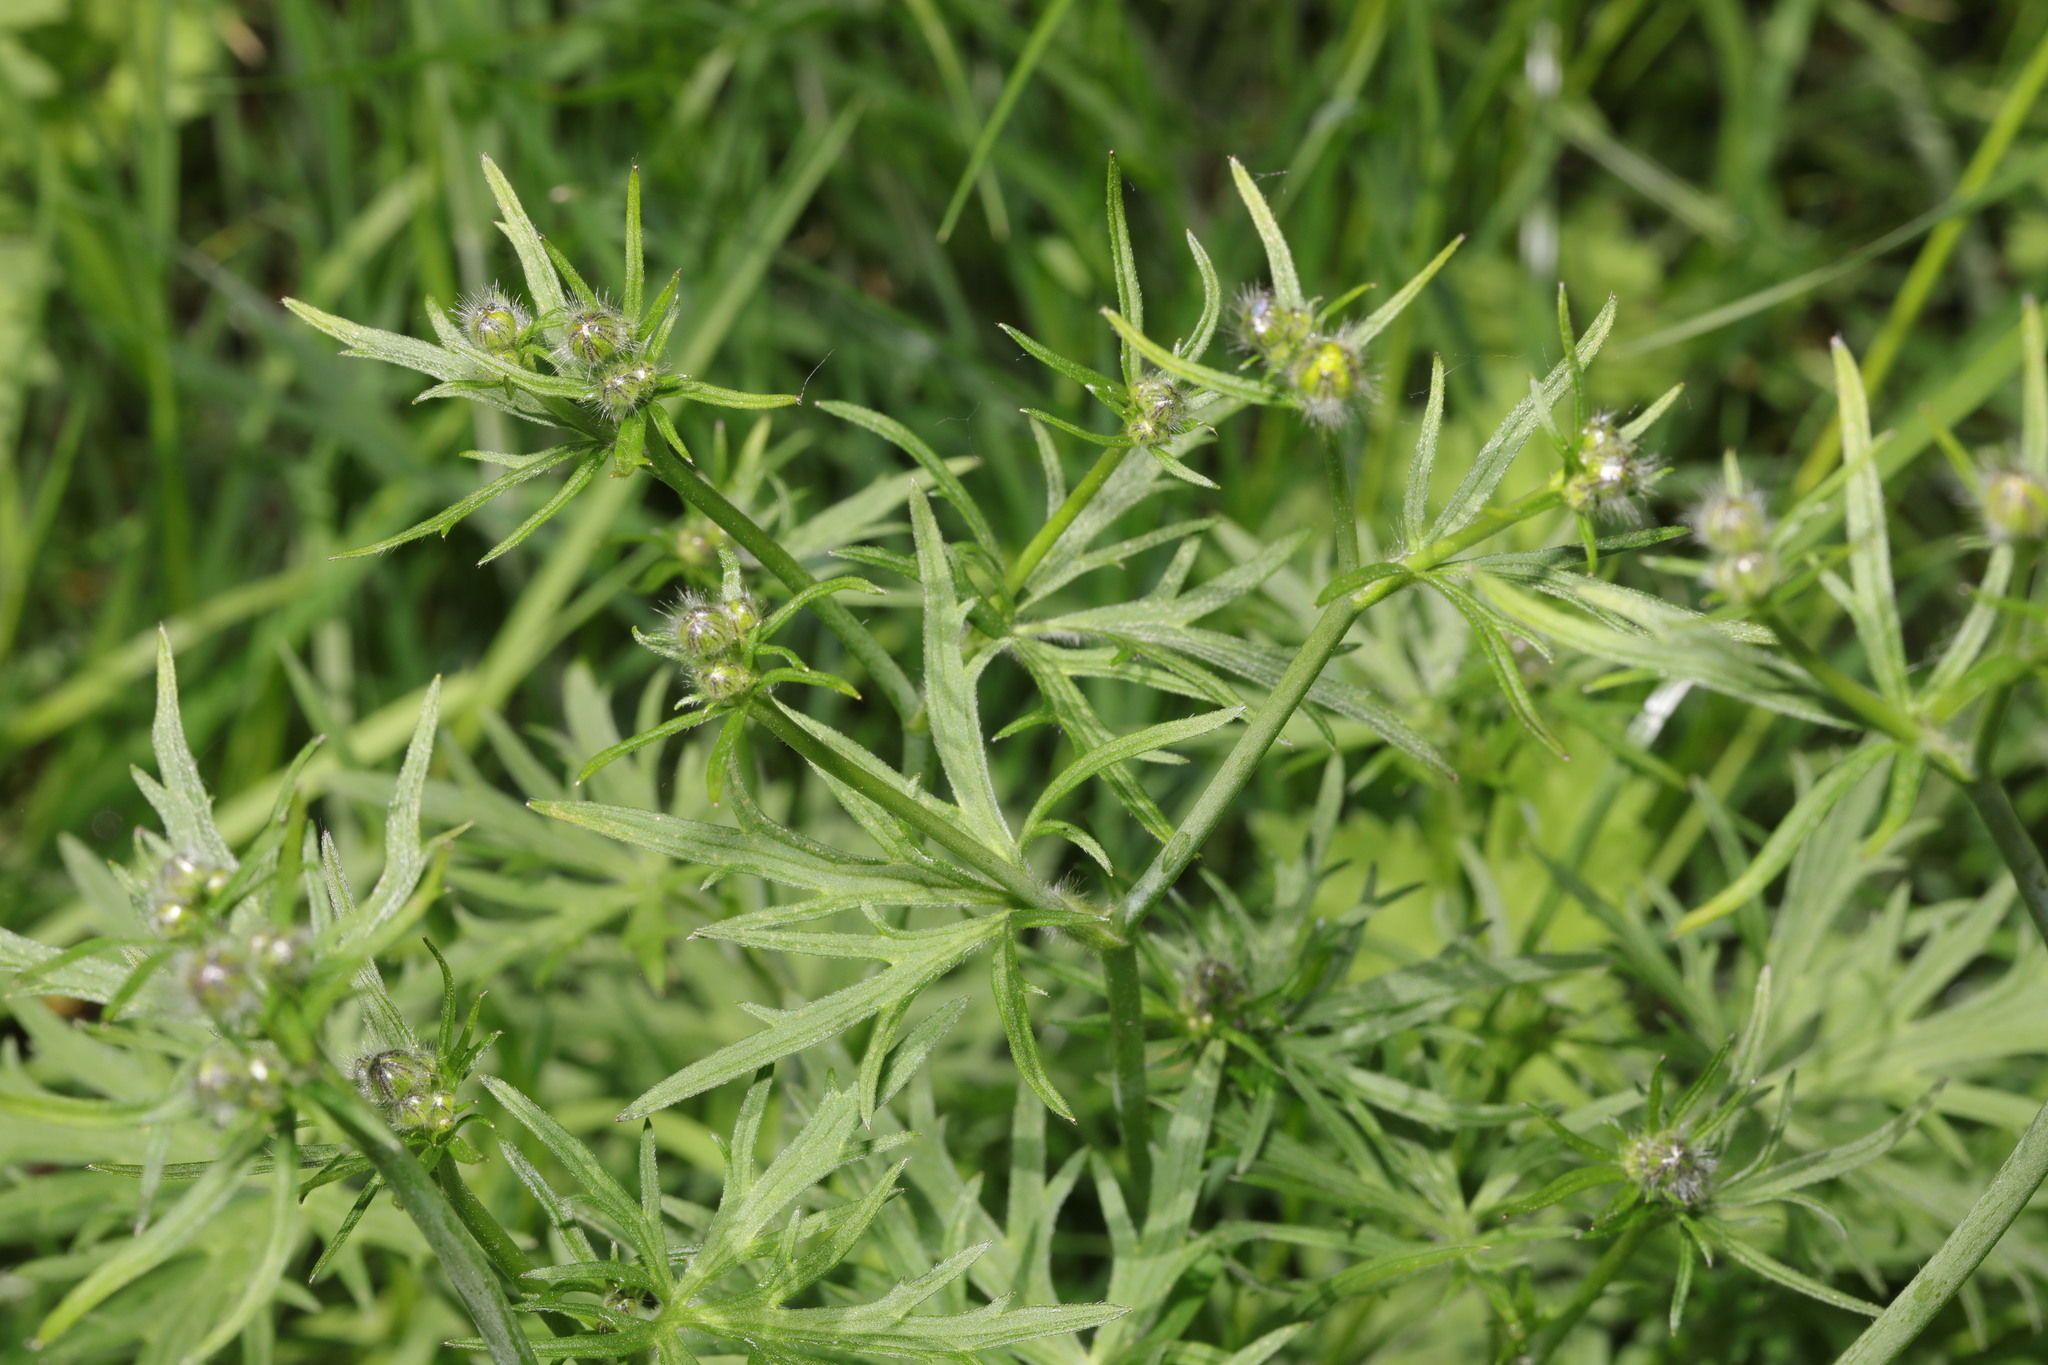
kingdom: Plantae
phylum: Tracheophyta
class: Magnoliopsida
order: Ranunculales
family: Ranunculaceae
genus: Ranunculus
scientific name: Ranunculus acris
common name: Meadow buttercup
